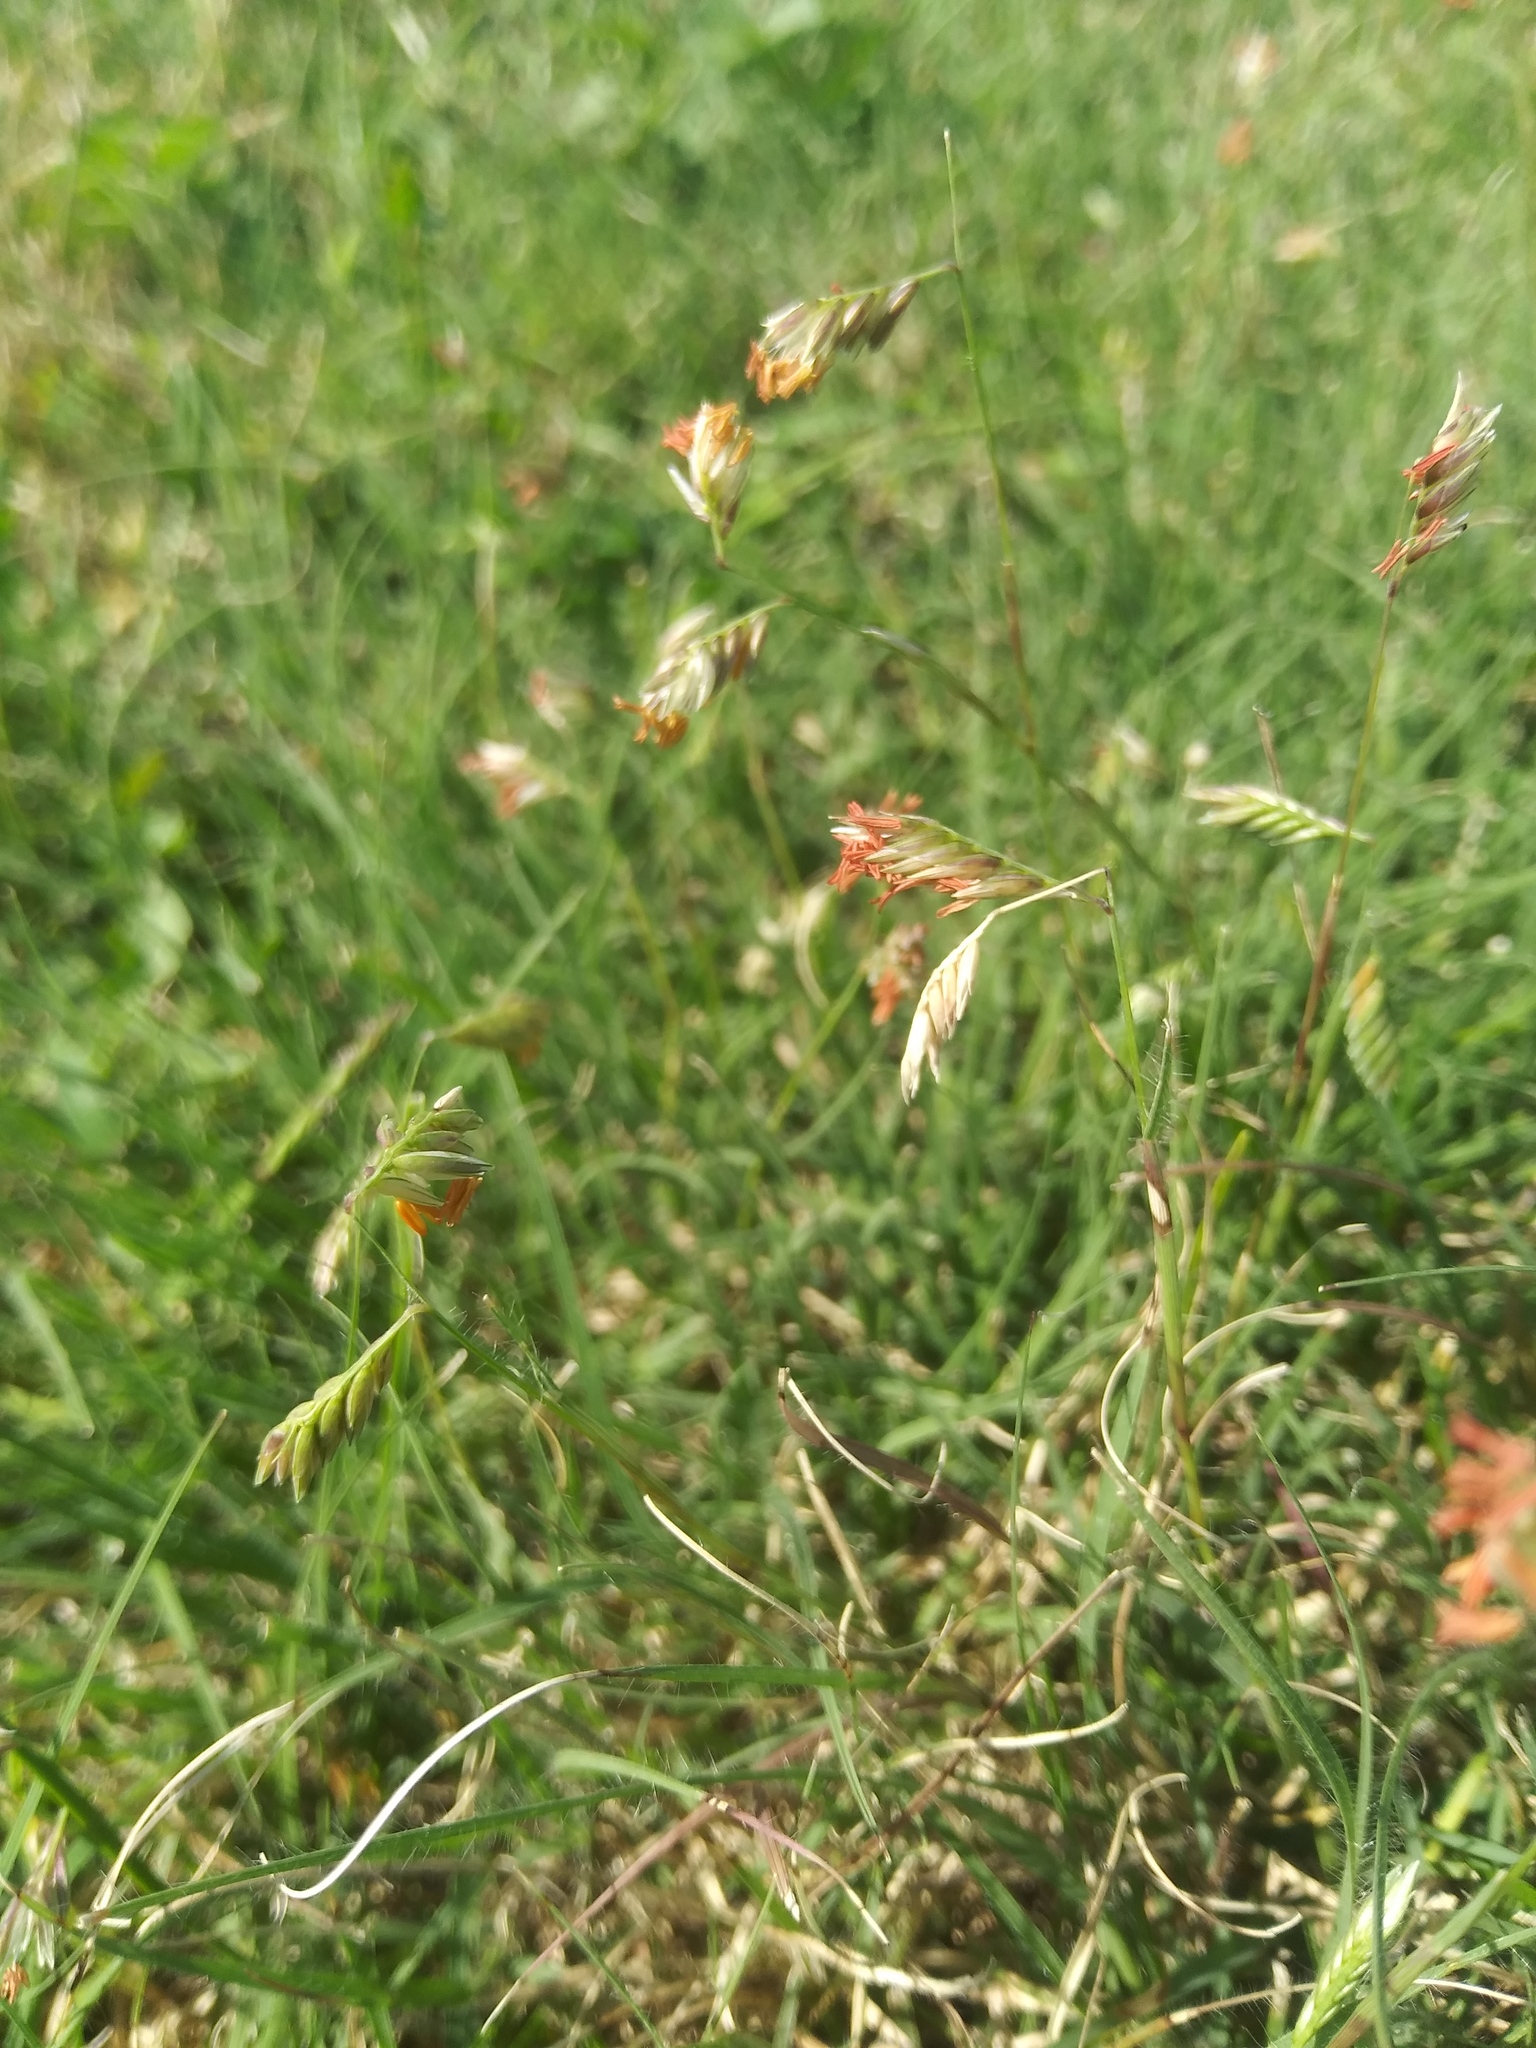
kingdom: Plantae
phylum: Tracheophyta
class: Liliopsida
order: Poales
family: Poaceae
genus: Bouteloua
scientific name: Bouteloua dactyloides
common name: Buffalo grass
